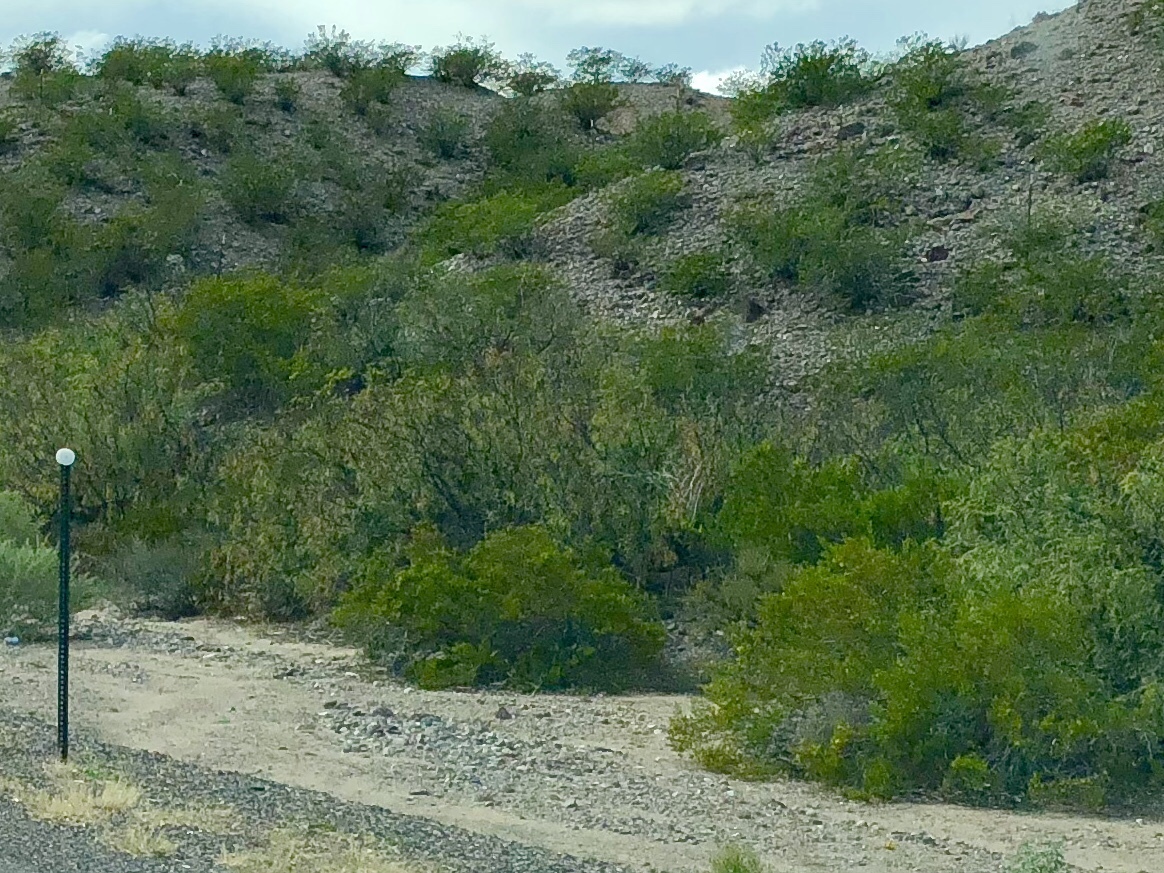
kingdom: Plantae
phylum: Tracheophyta
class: Magnoliopsida
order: Zygophyllales
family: Zygophyllaceae
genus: Larrea
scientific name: Larrea tridentata
